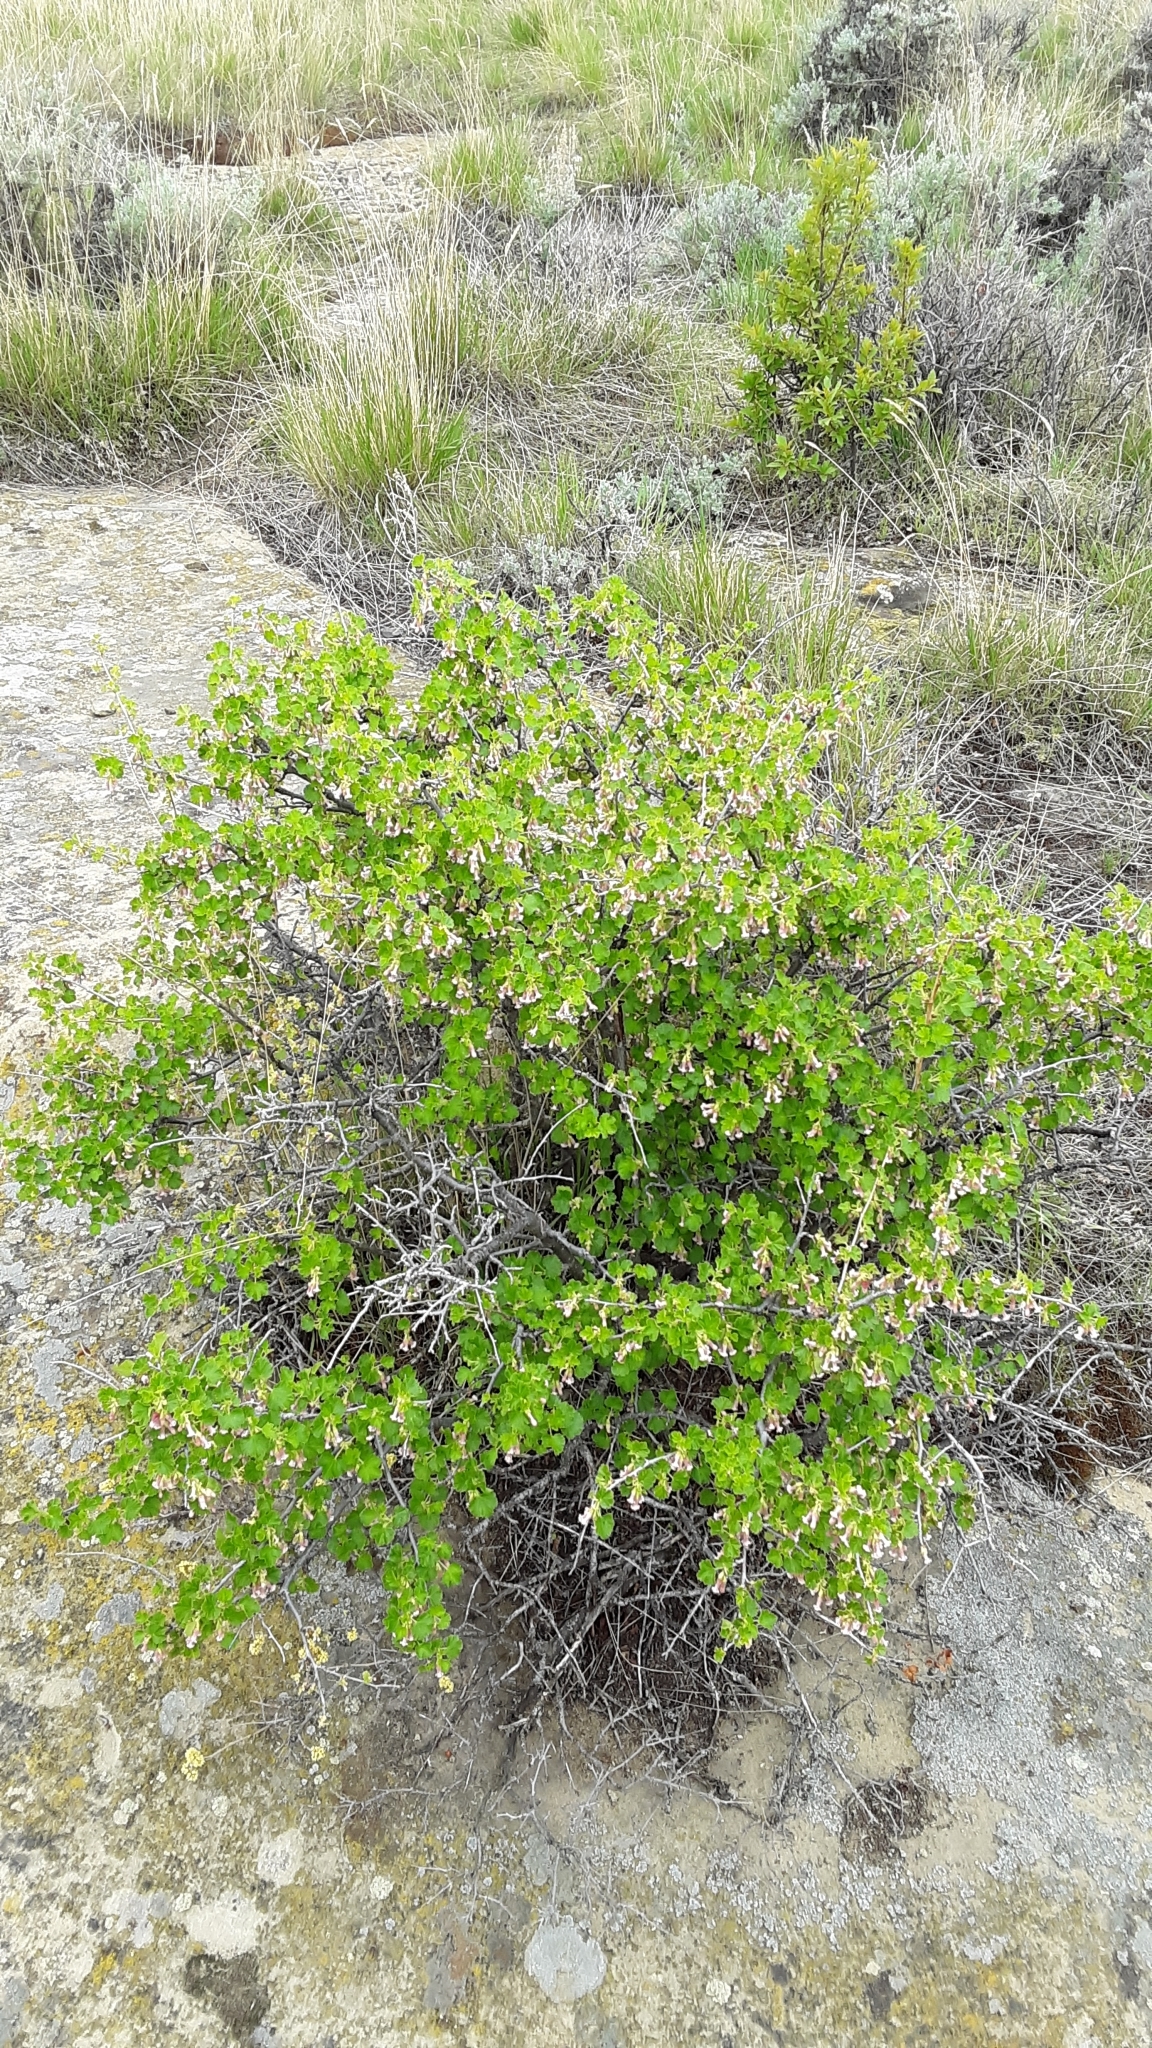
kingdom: Plantae
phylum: Tracheophyta
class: Magnoliopsida
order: Saxifragales
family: Grossulariaceae
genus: Ribes
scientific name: Ribes cereum
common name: Wax currant
